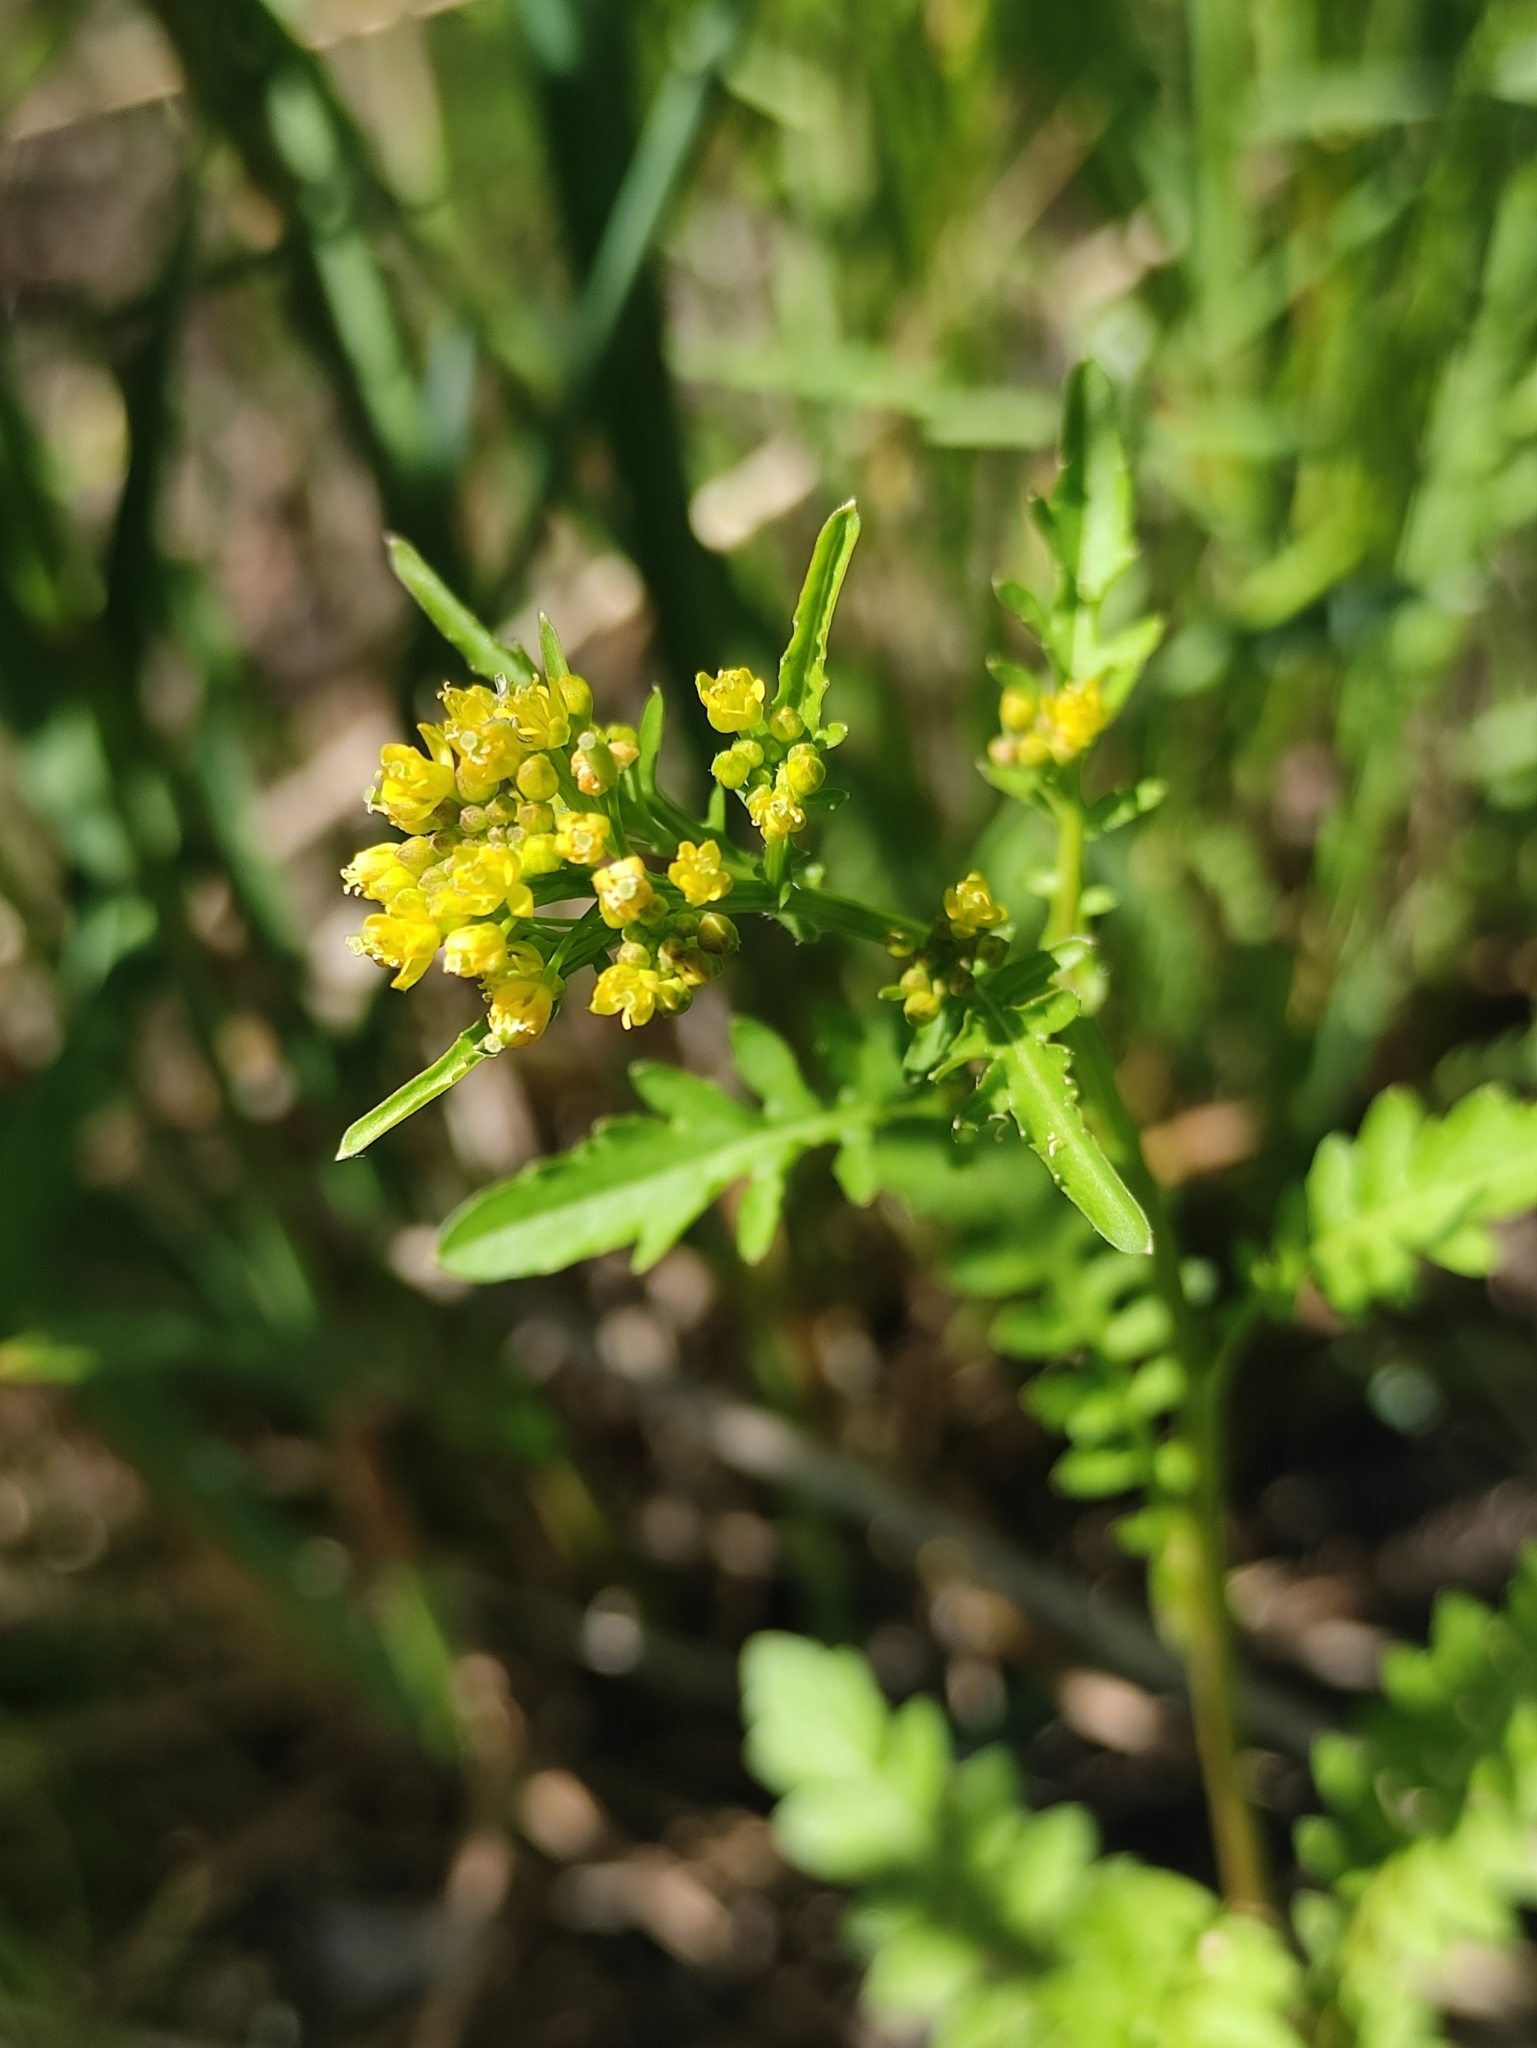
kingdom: Plantae
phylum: Tracheophyta
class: Magnoliopsida
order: Brassicales
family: Brassicaceae
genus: Rorippa
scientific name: Rorippa palustris
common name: Marsh yellow-cress
